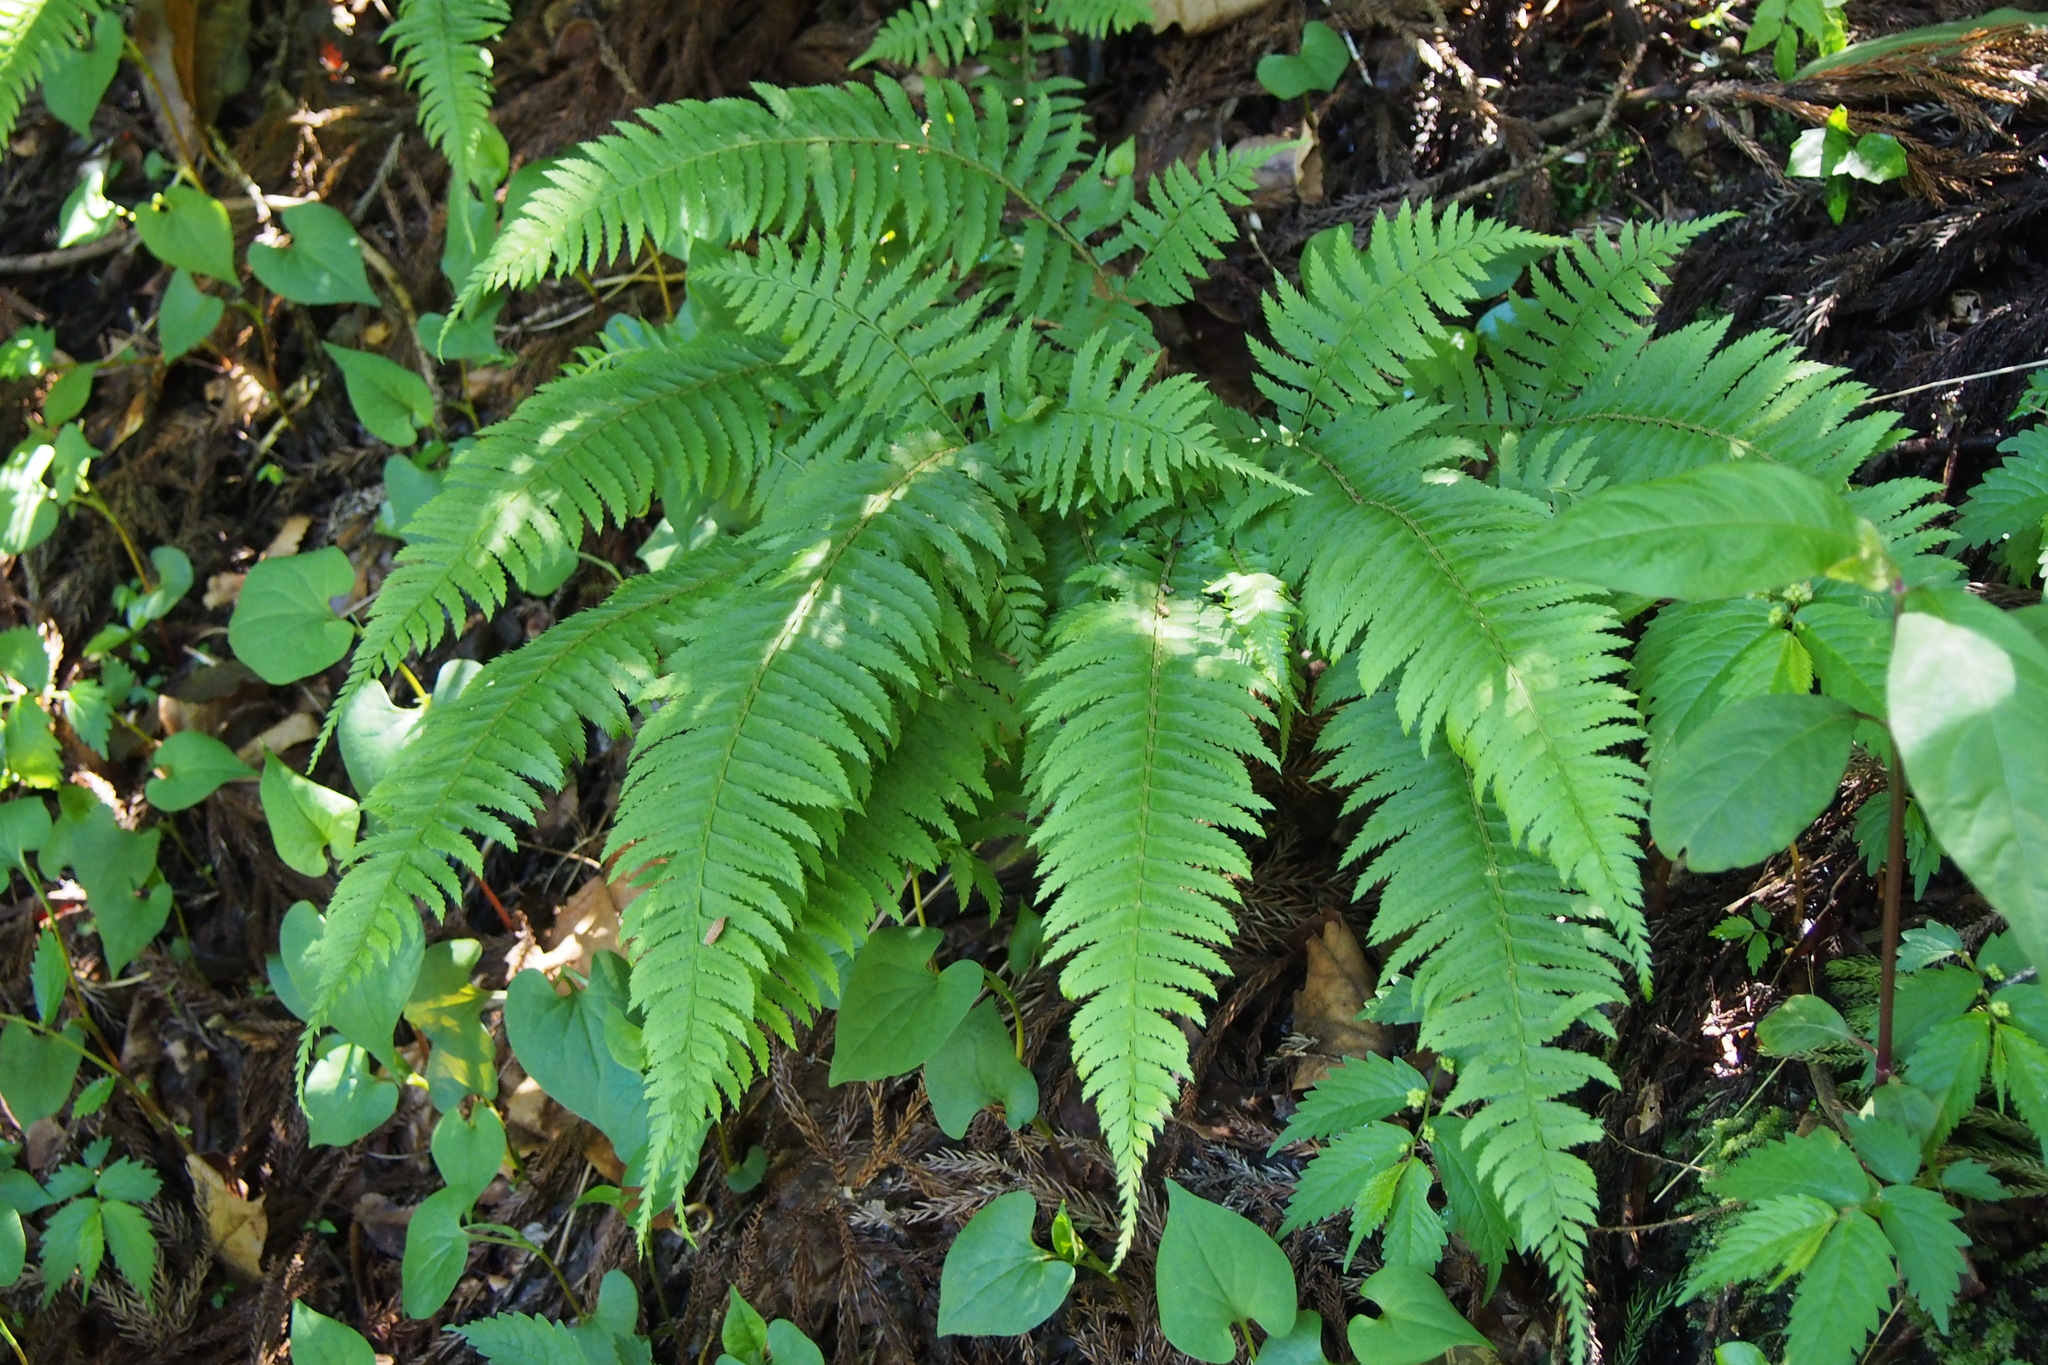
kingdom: Plantae
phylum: Tracheophyta
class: Polypodiopsida
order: Polypodiales
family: Dryopteridaceae
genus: Polystichum
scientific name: Polystichum tripteron
